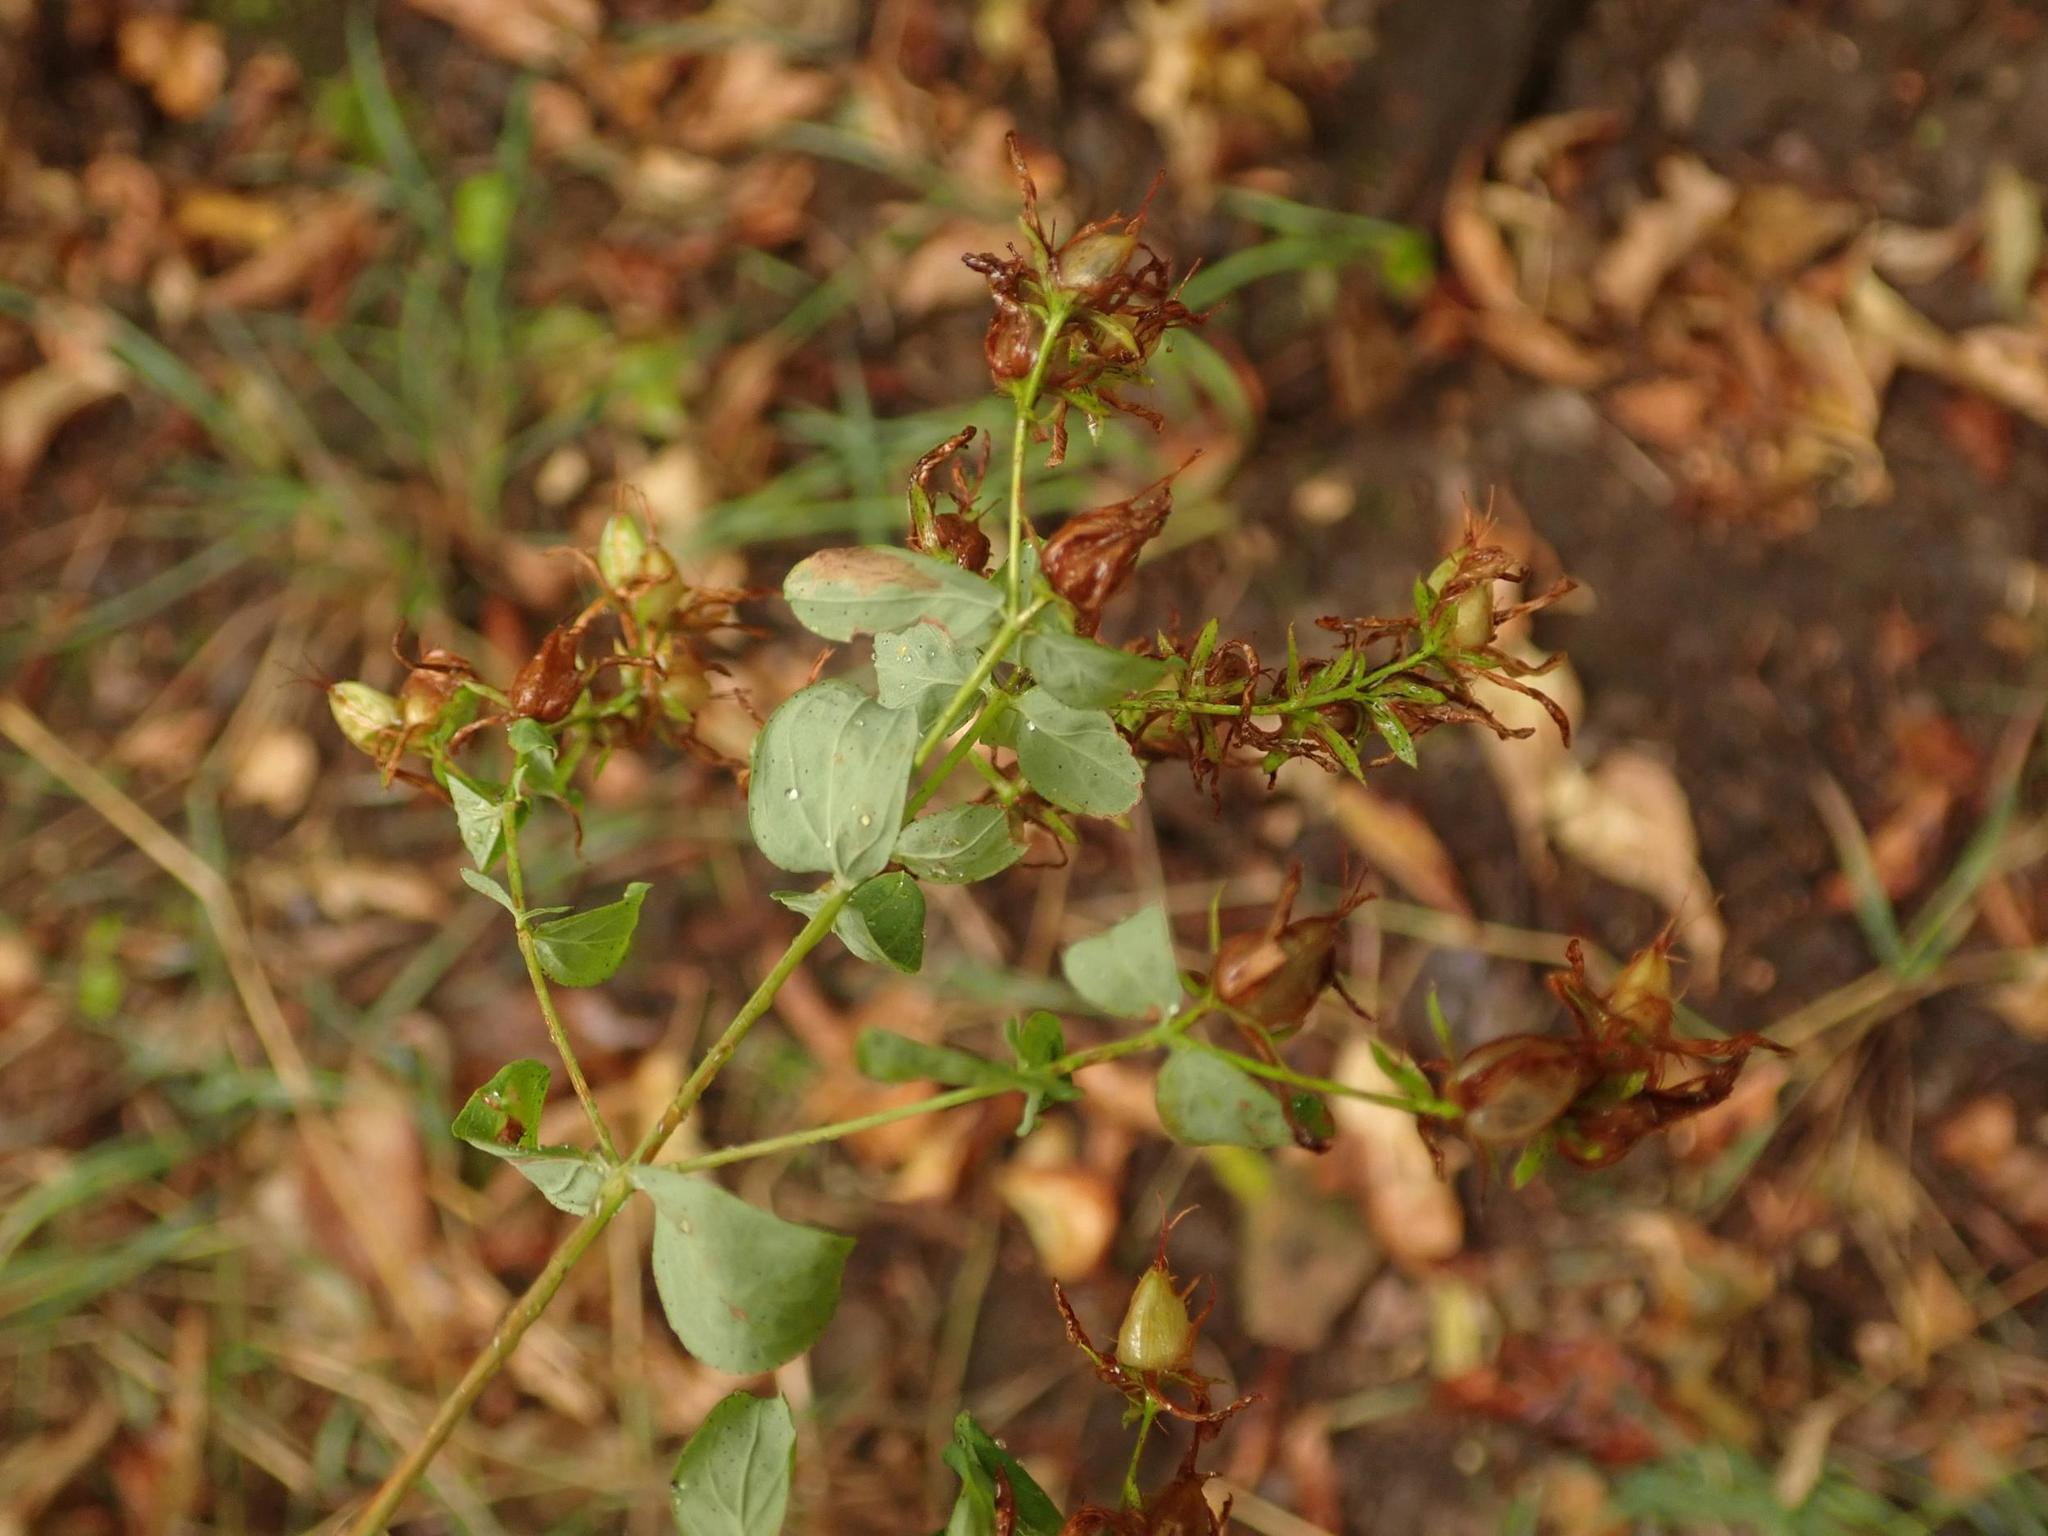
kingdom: Plantae
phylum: Tracheophyta
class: Magnoliopsida
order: Malpighiales
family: Hypericaceae
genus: Hypericum
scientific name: Hypericum perforatum
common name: Common st. johnswort
